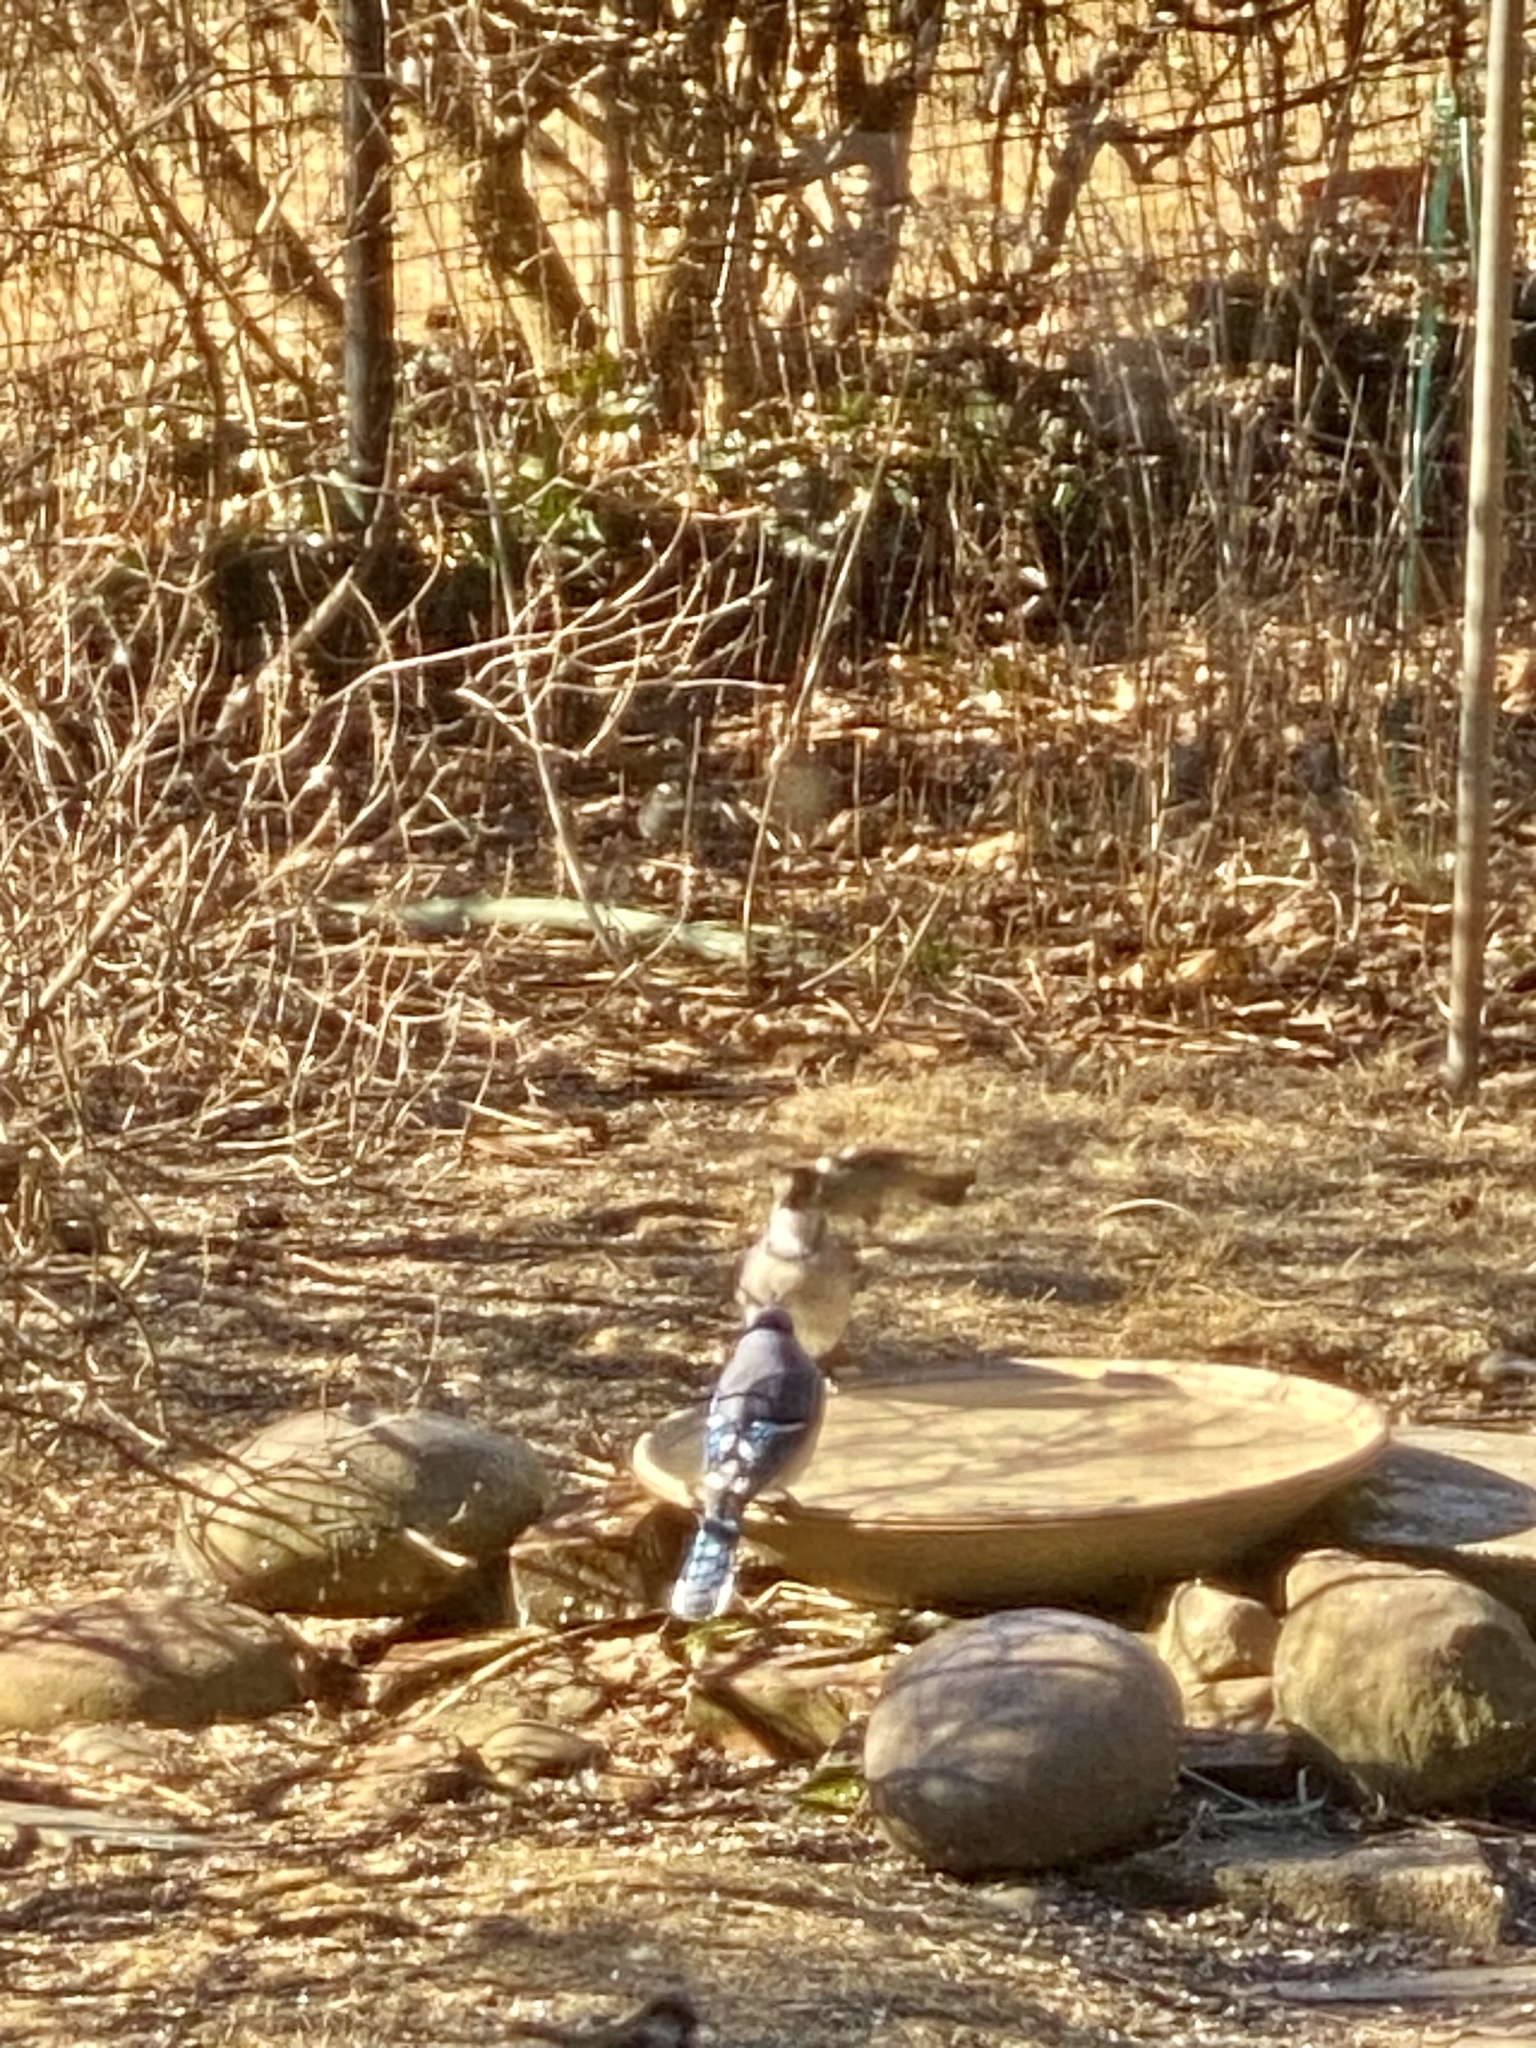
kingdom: Animalia
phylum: Chordata
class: Aves
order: Passeriformes
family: Corvidae
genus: Cyanocitta
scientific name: Cyanocitta cristata
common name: Blue jay
